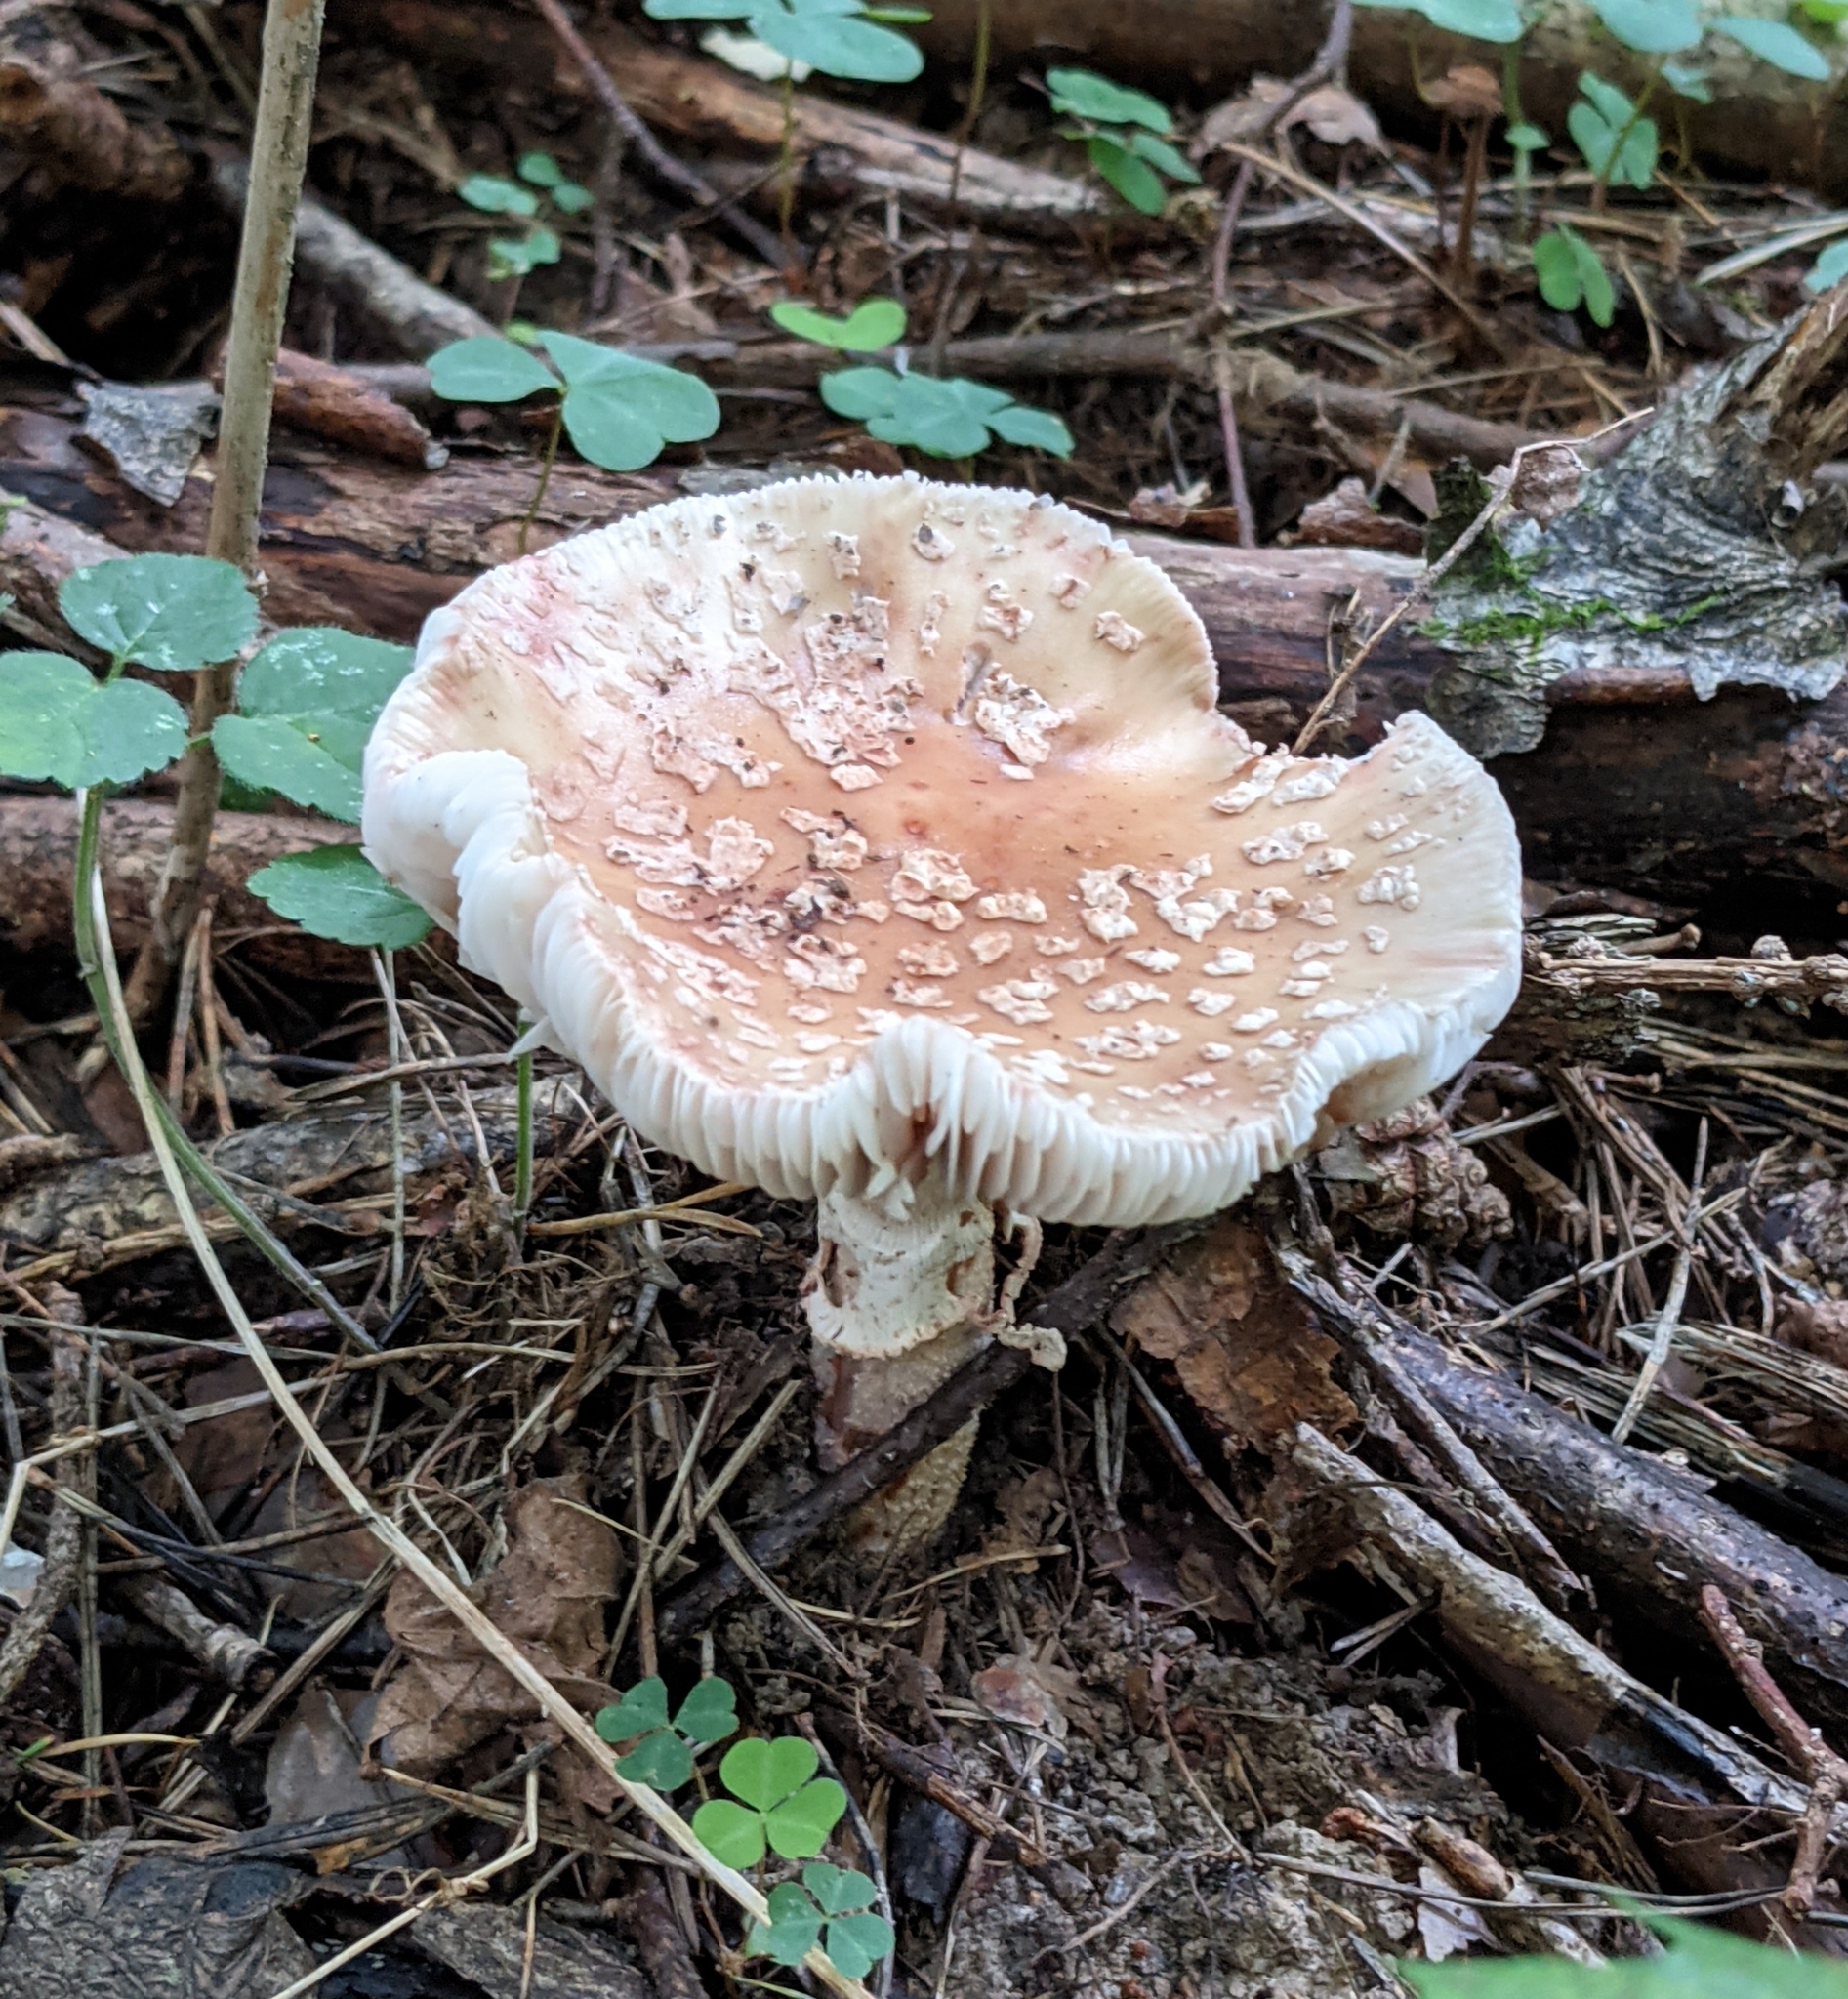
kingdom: Fungi
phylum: Basidiomycota
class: Agaricomycetes
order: Agaricales
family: Amanitaceae
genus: Amanita
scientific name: Amanita rubescens
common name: Blusher
